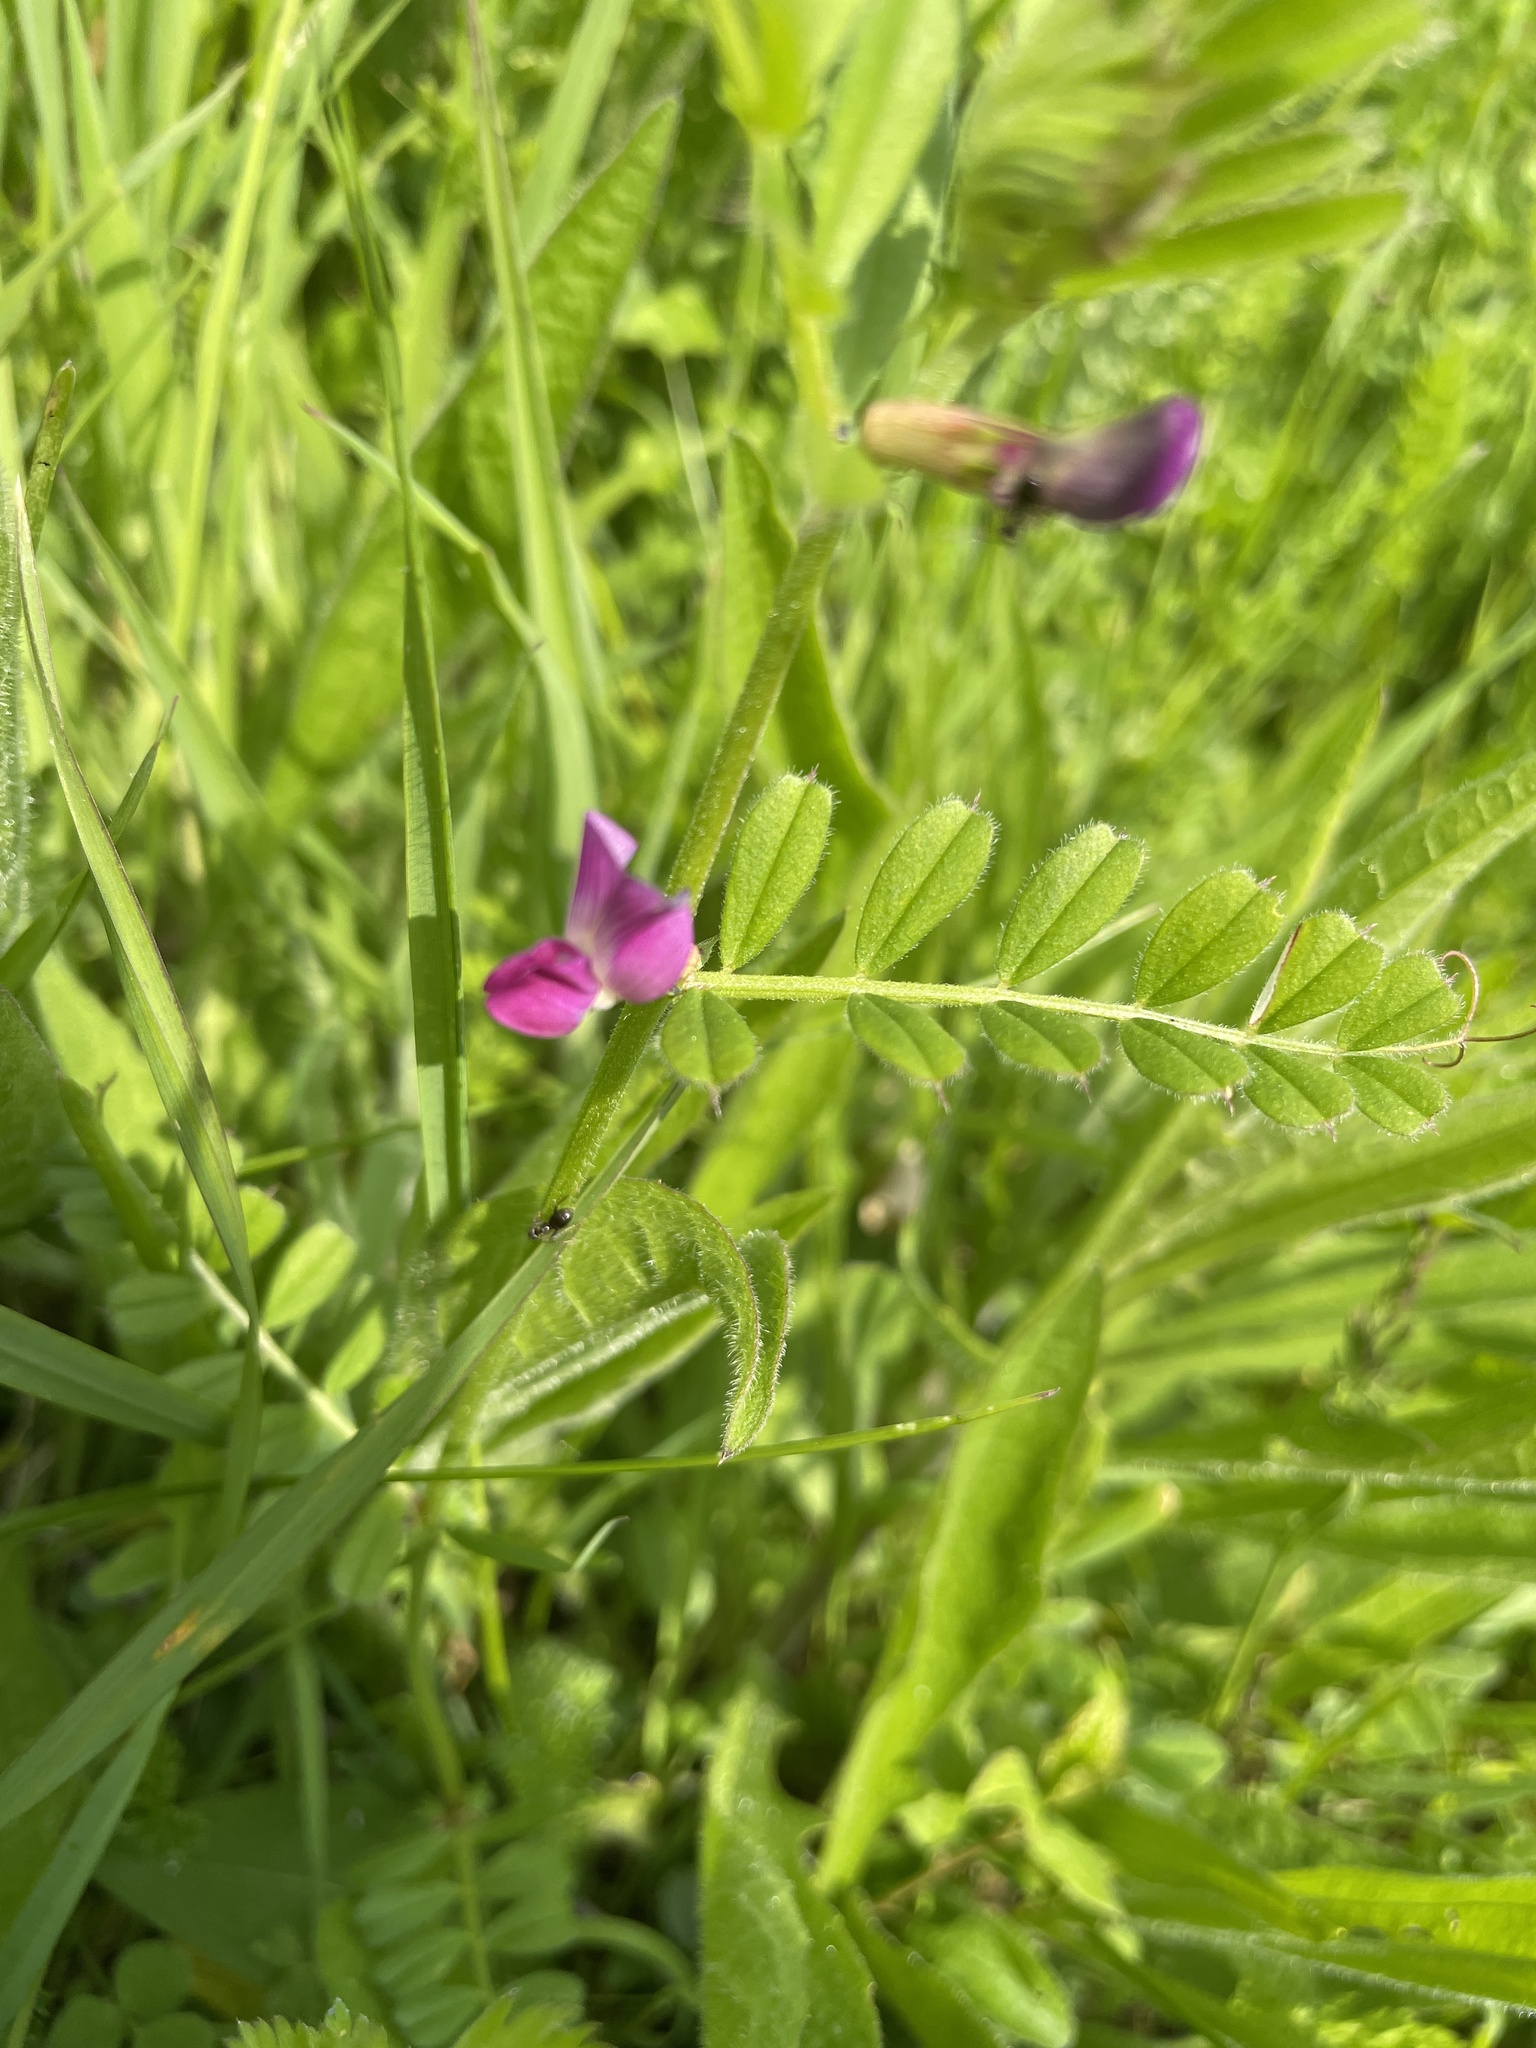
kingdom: Plantae
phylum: Tracheophyta
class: Magnoliopsida
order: Fabales
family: Fabaceae
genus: Vicia
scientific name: Vicia sativa
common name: Garden vetch
